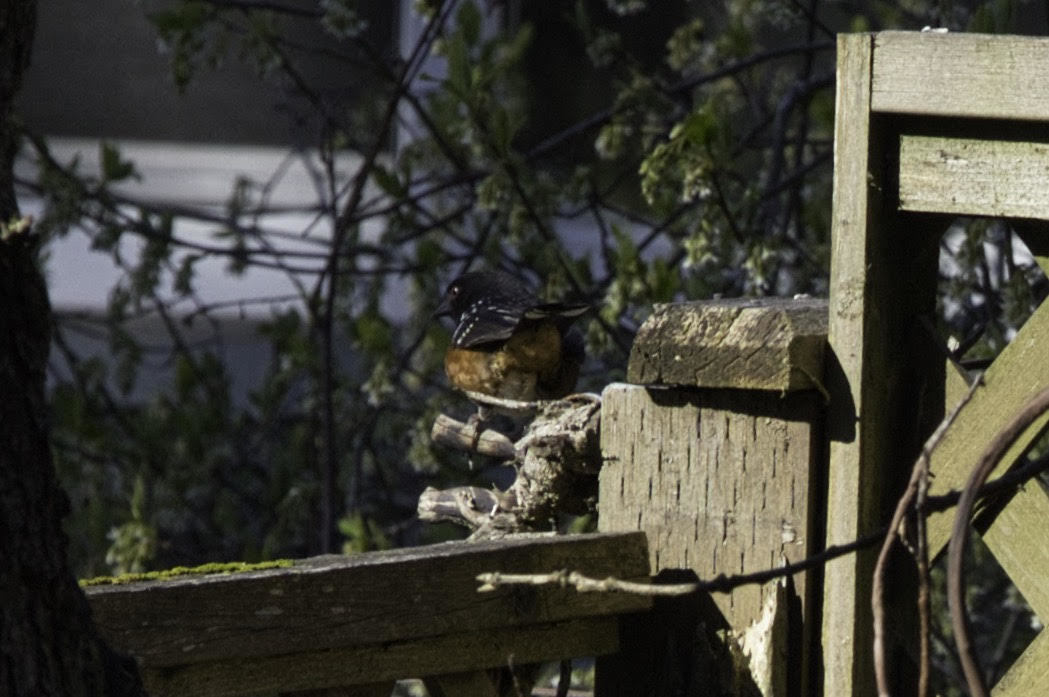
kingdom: Animalia
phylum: Chordata
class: Aves
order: Passeriformes
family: Passerellidae
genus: Pipilo
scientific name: Pipilo maculatus
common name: Spotted towhee
